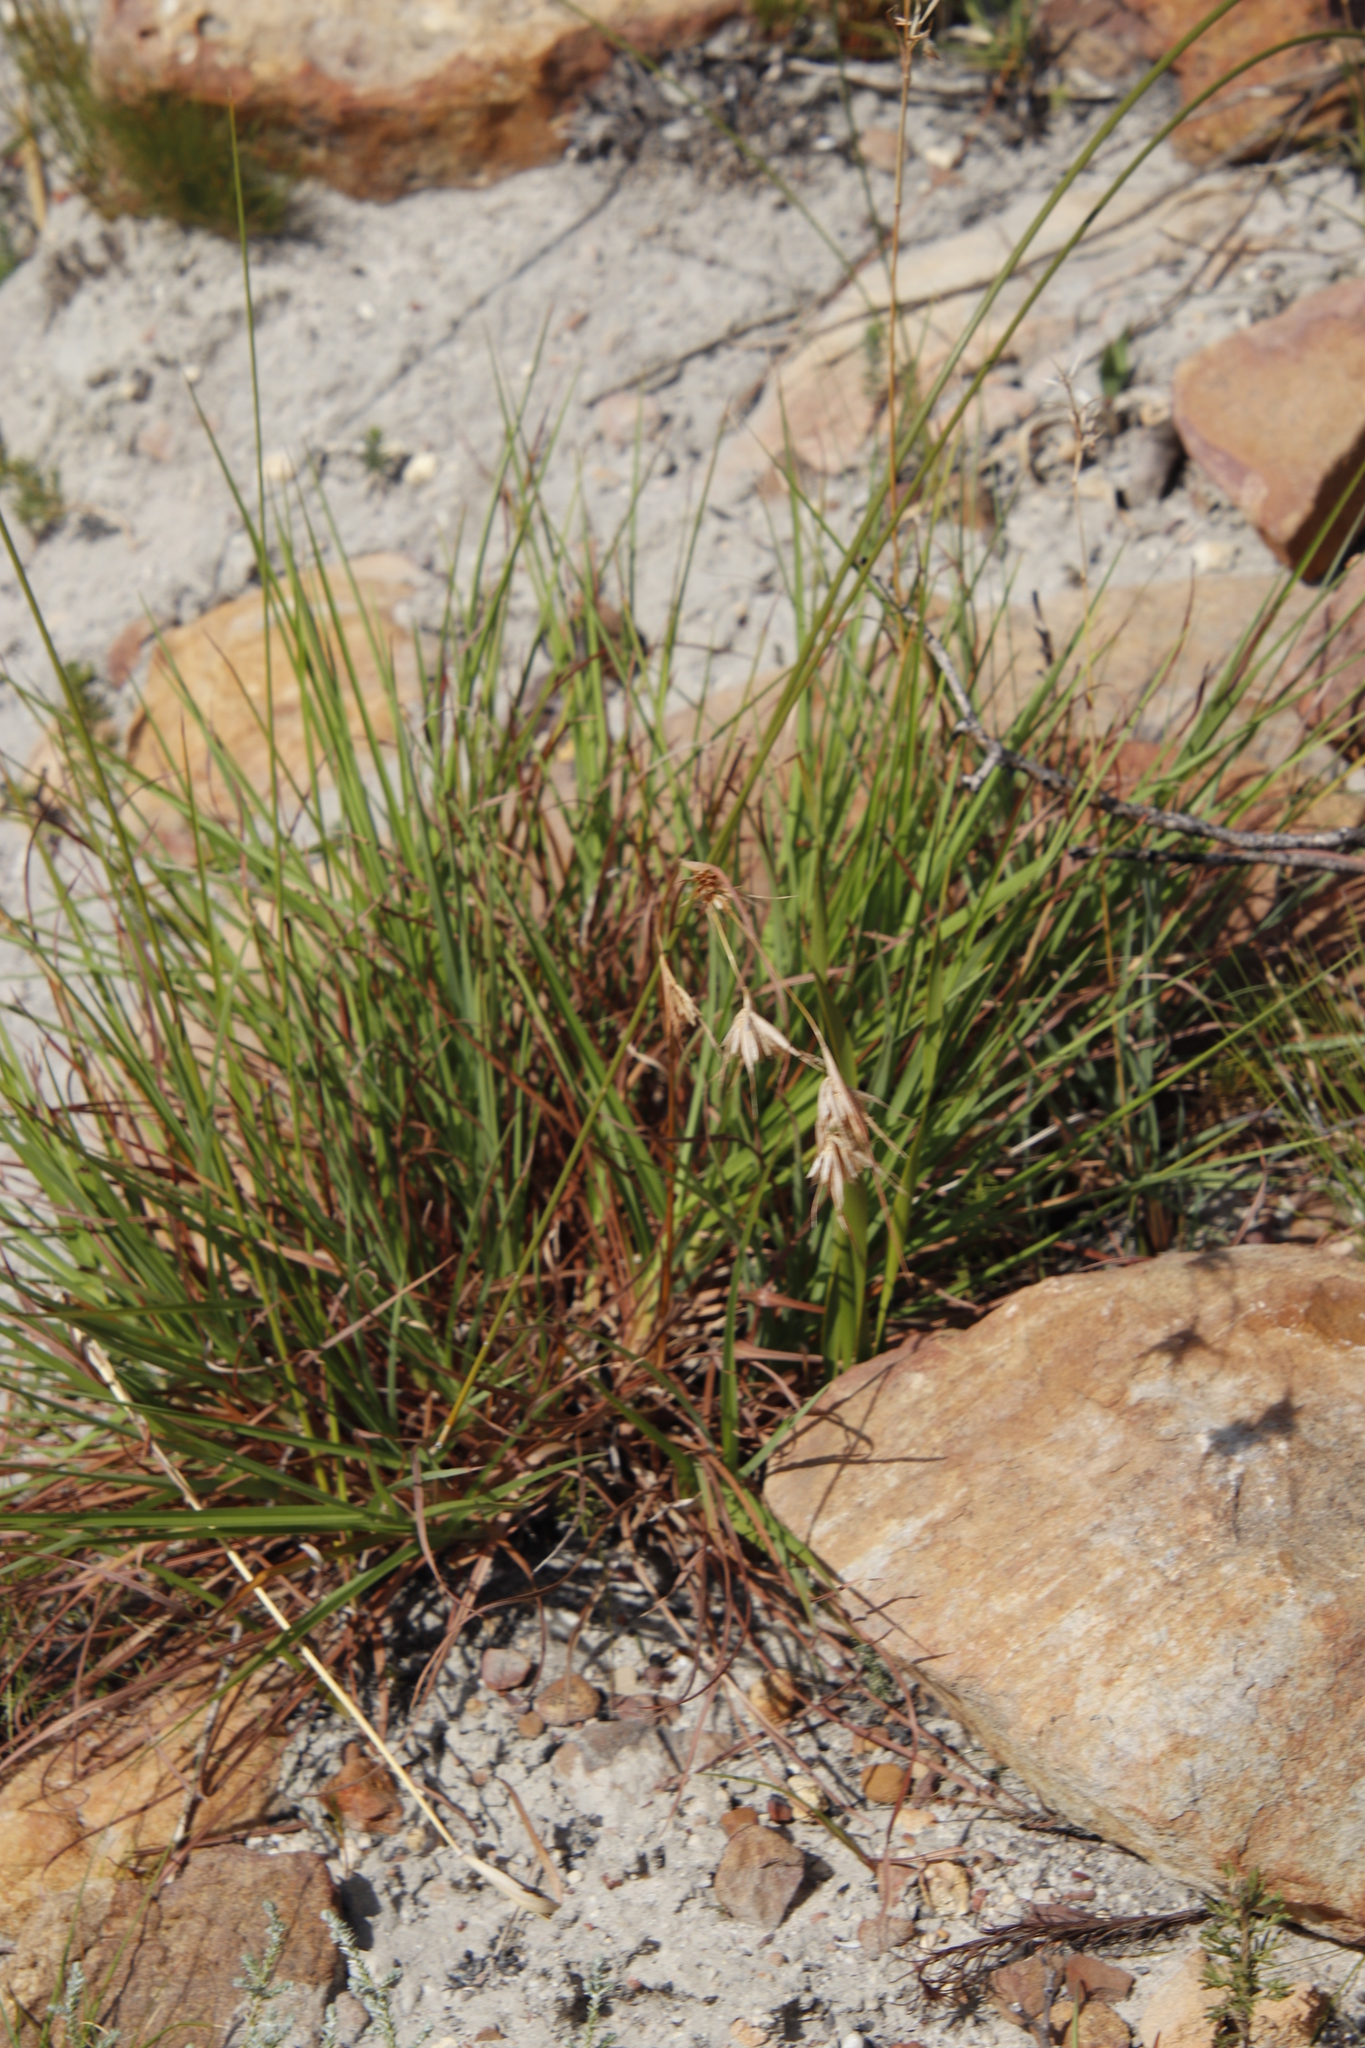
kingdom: Plantae
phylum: Tracheophyta
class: Liliopsida
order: Poales
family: Poaceae
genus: Themeda
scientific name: Themeda triandra
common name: Kangaroo grass
